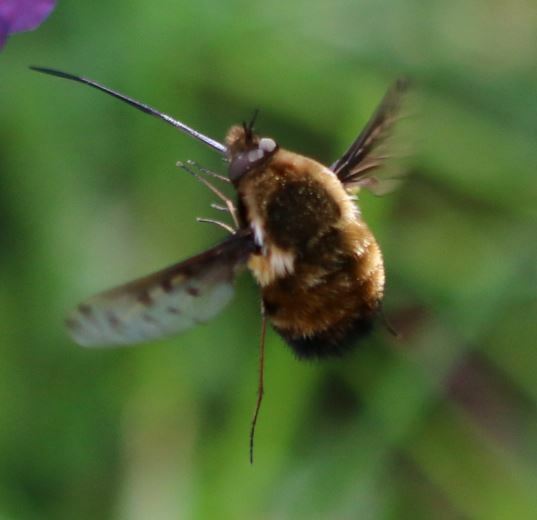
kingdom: Animalia
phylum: Arthropoda
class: Insecta
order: Diptera
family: Bombyliidae
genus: Bombylius
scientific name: Bombylius discolor
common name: Dotted bee-fly
